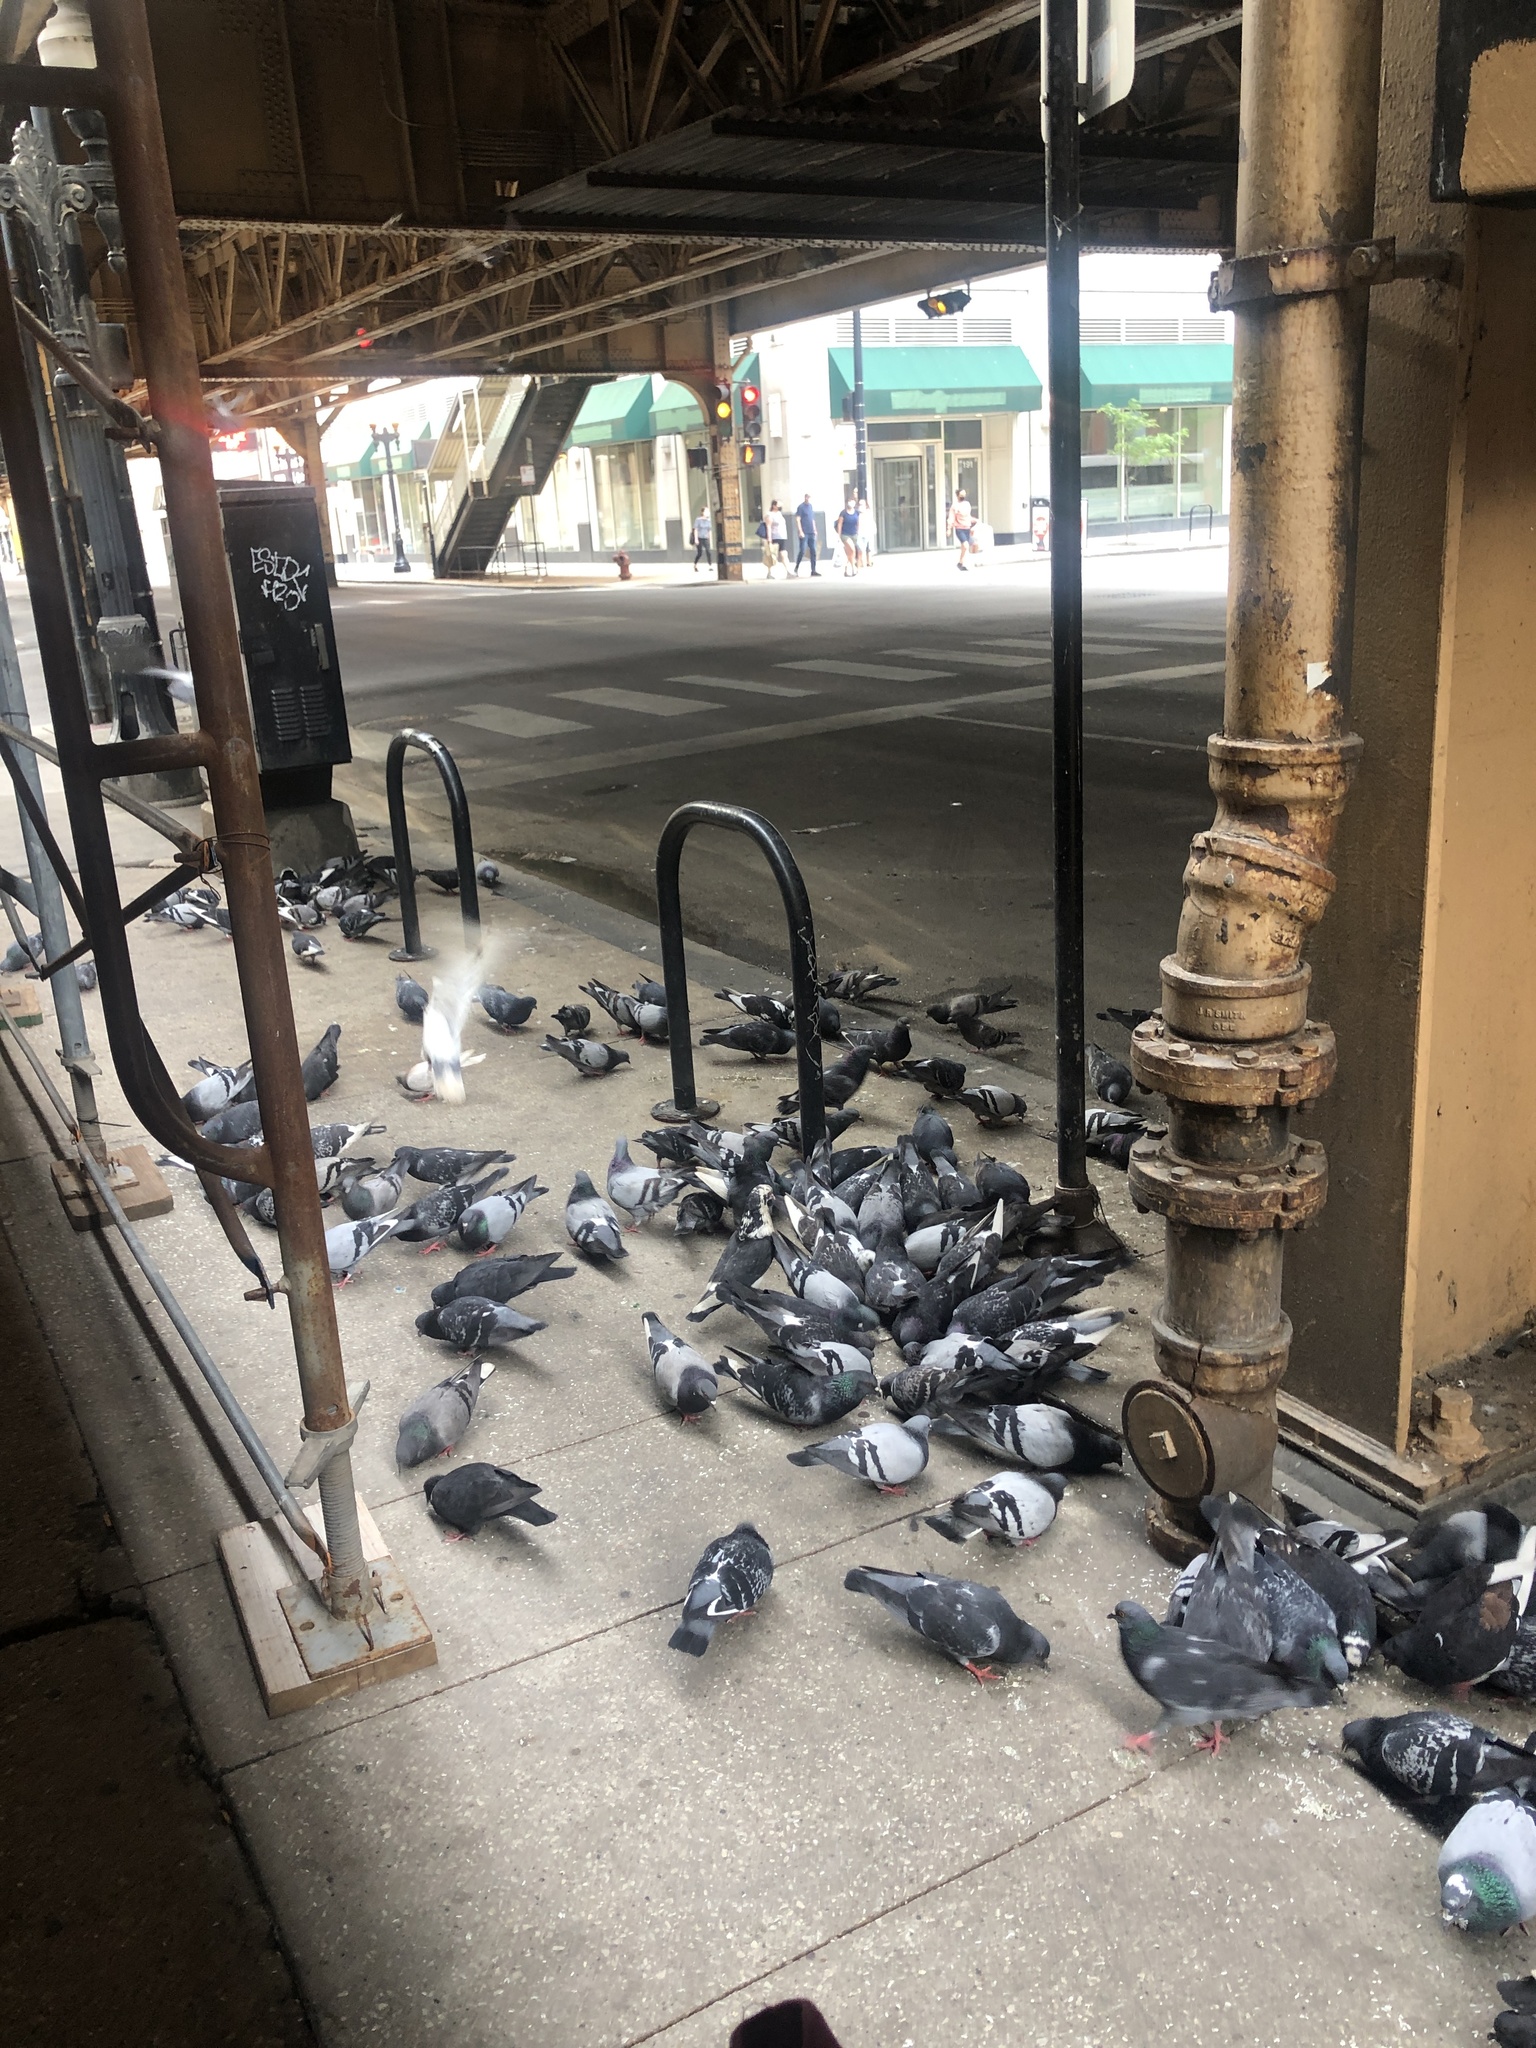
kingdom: Animalia
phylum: Chordata
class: Aves
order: Columbiformes
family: Columbidae
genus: Columba
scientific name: Columba livia
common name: Rock pigeon
